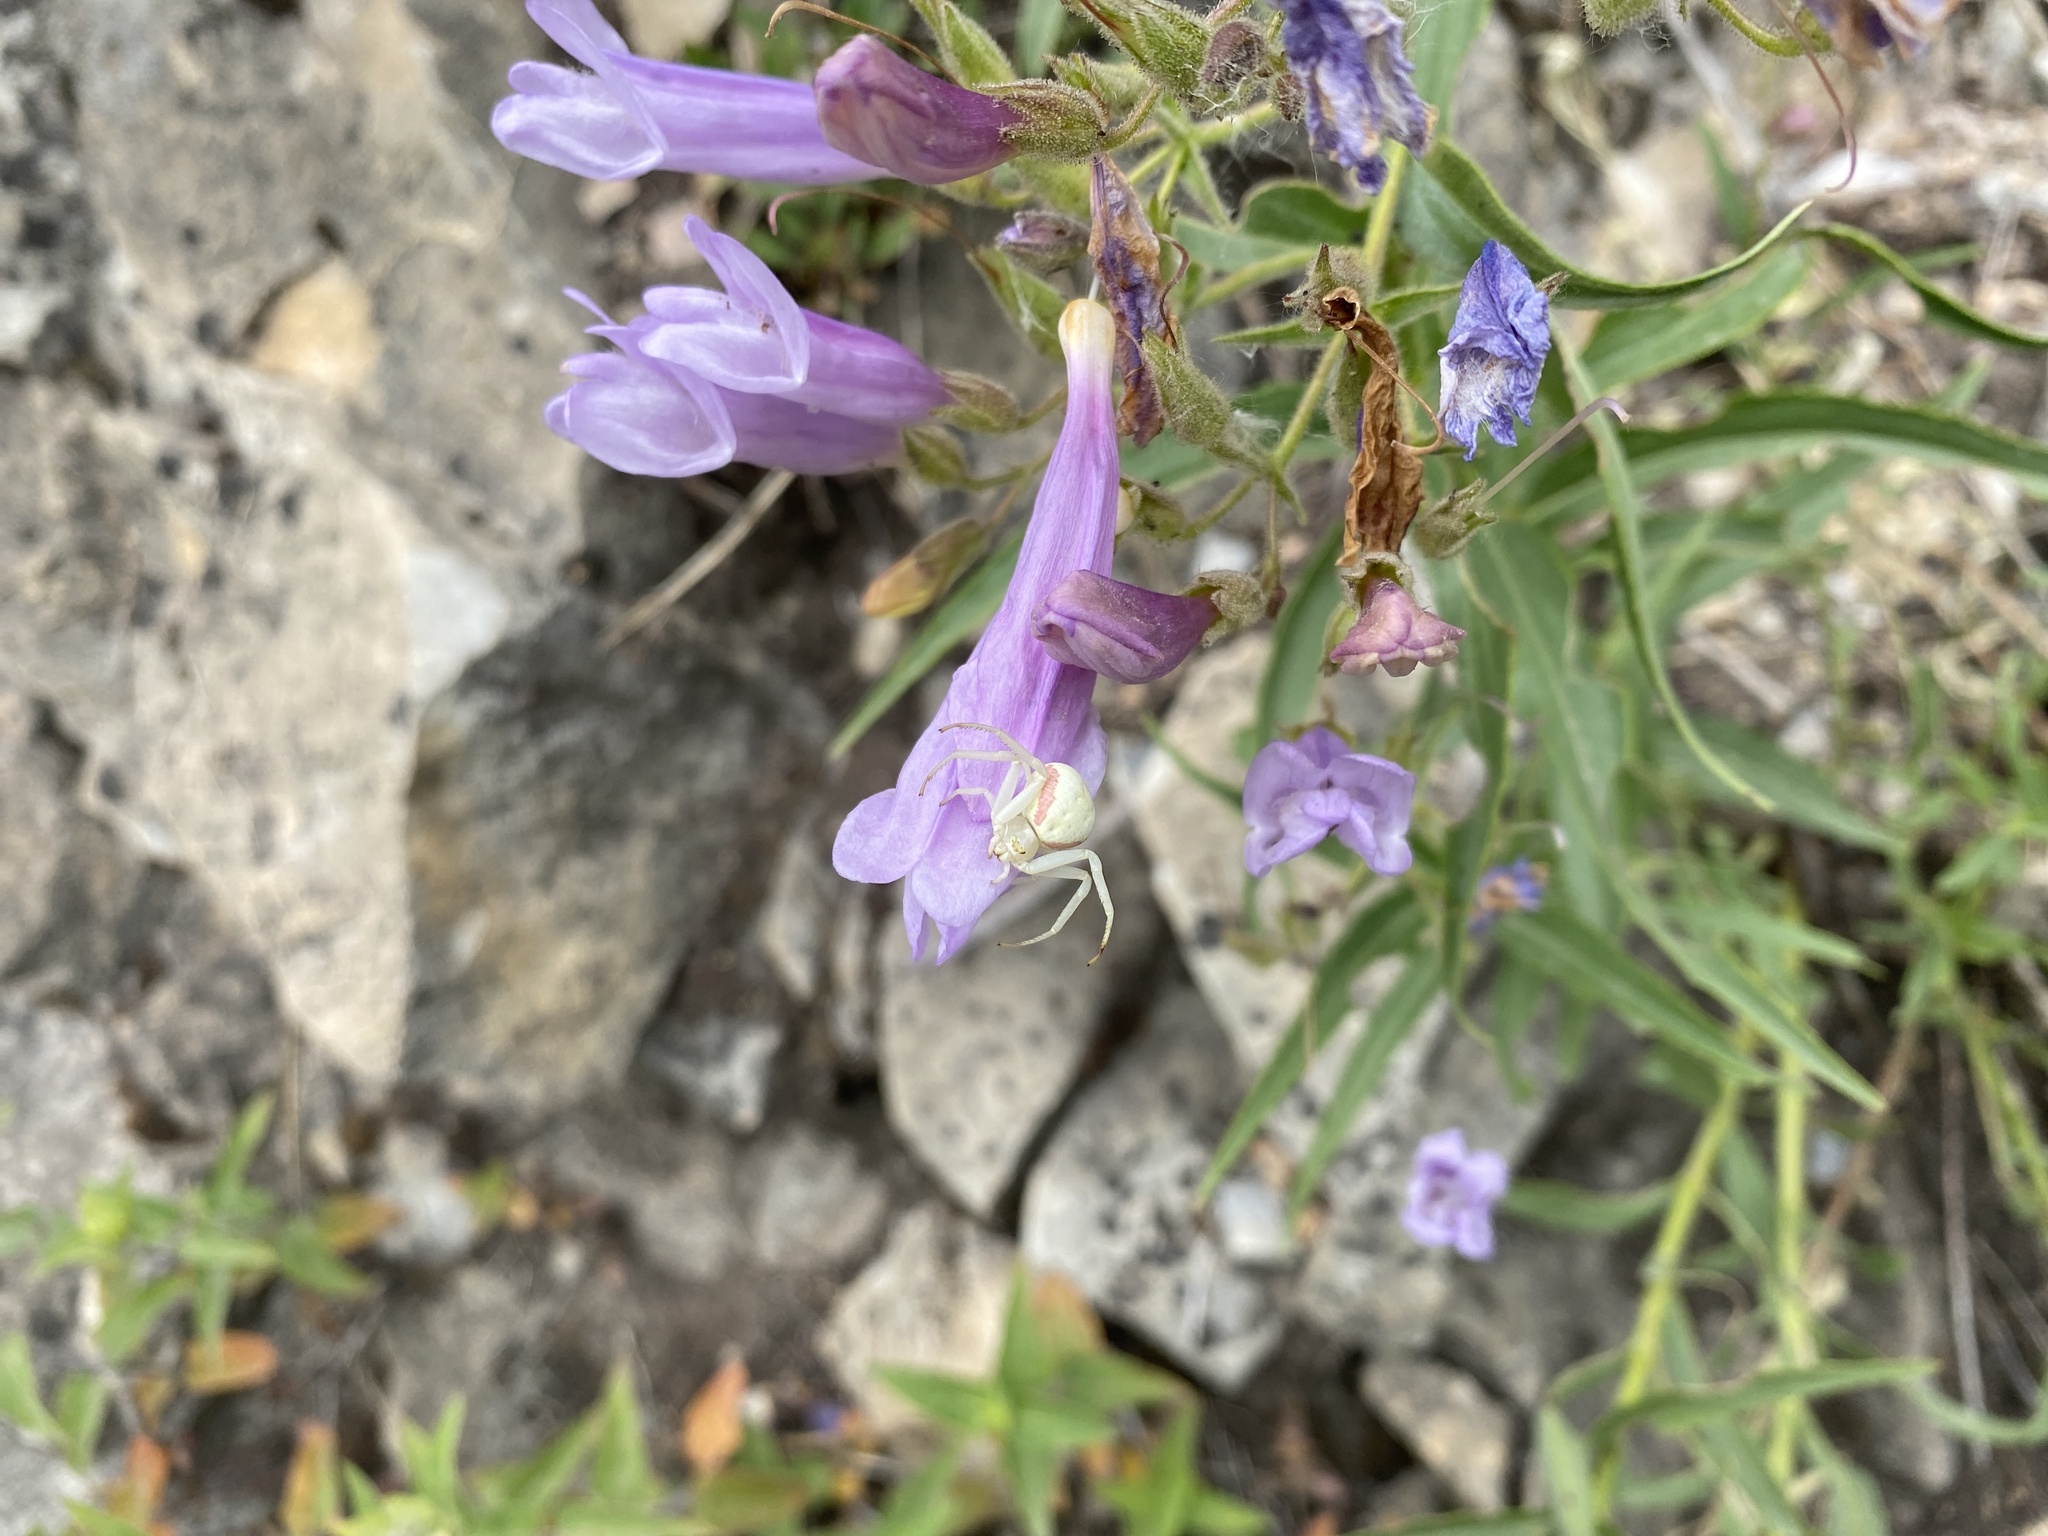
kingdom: Animalia
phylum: Arthropoda
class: Arachnida
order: Araneae
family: Thomisidae
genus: Misumena
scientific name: Misumena vatia
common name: Goldenrod crab spider
